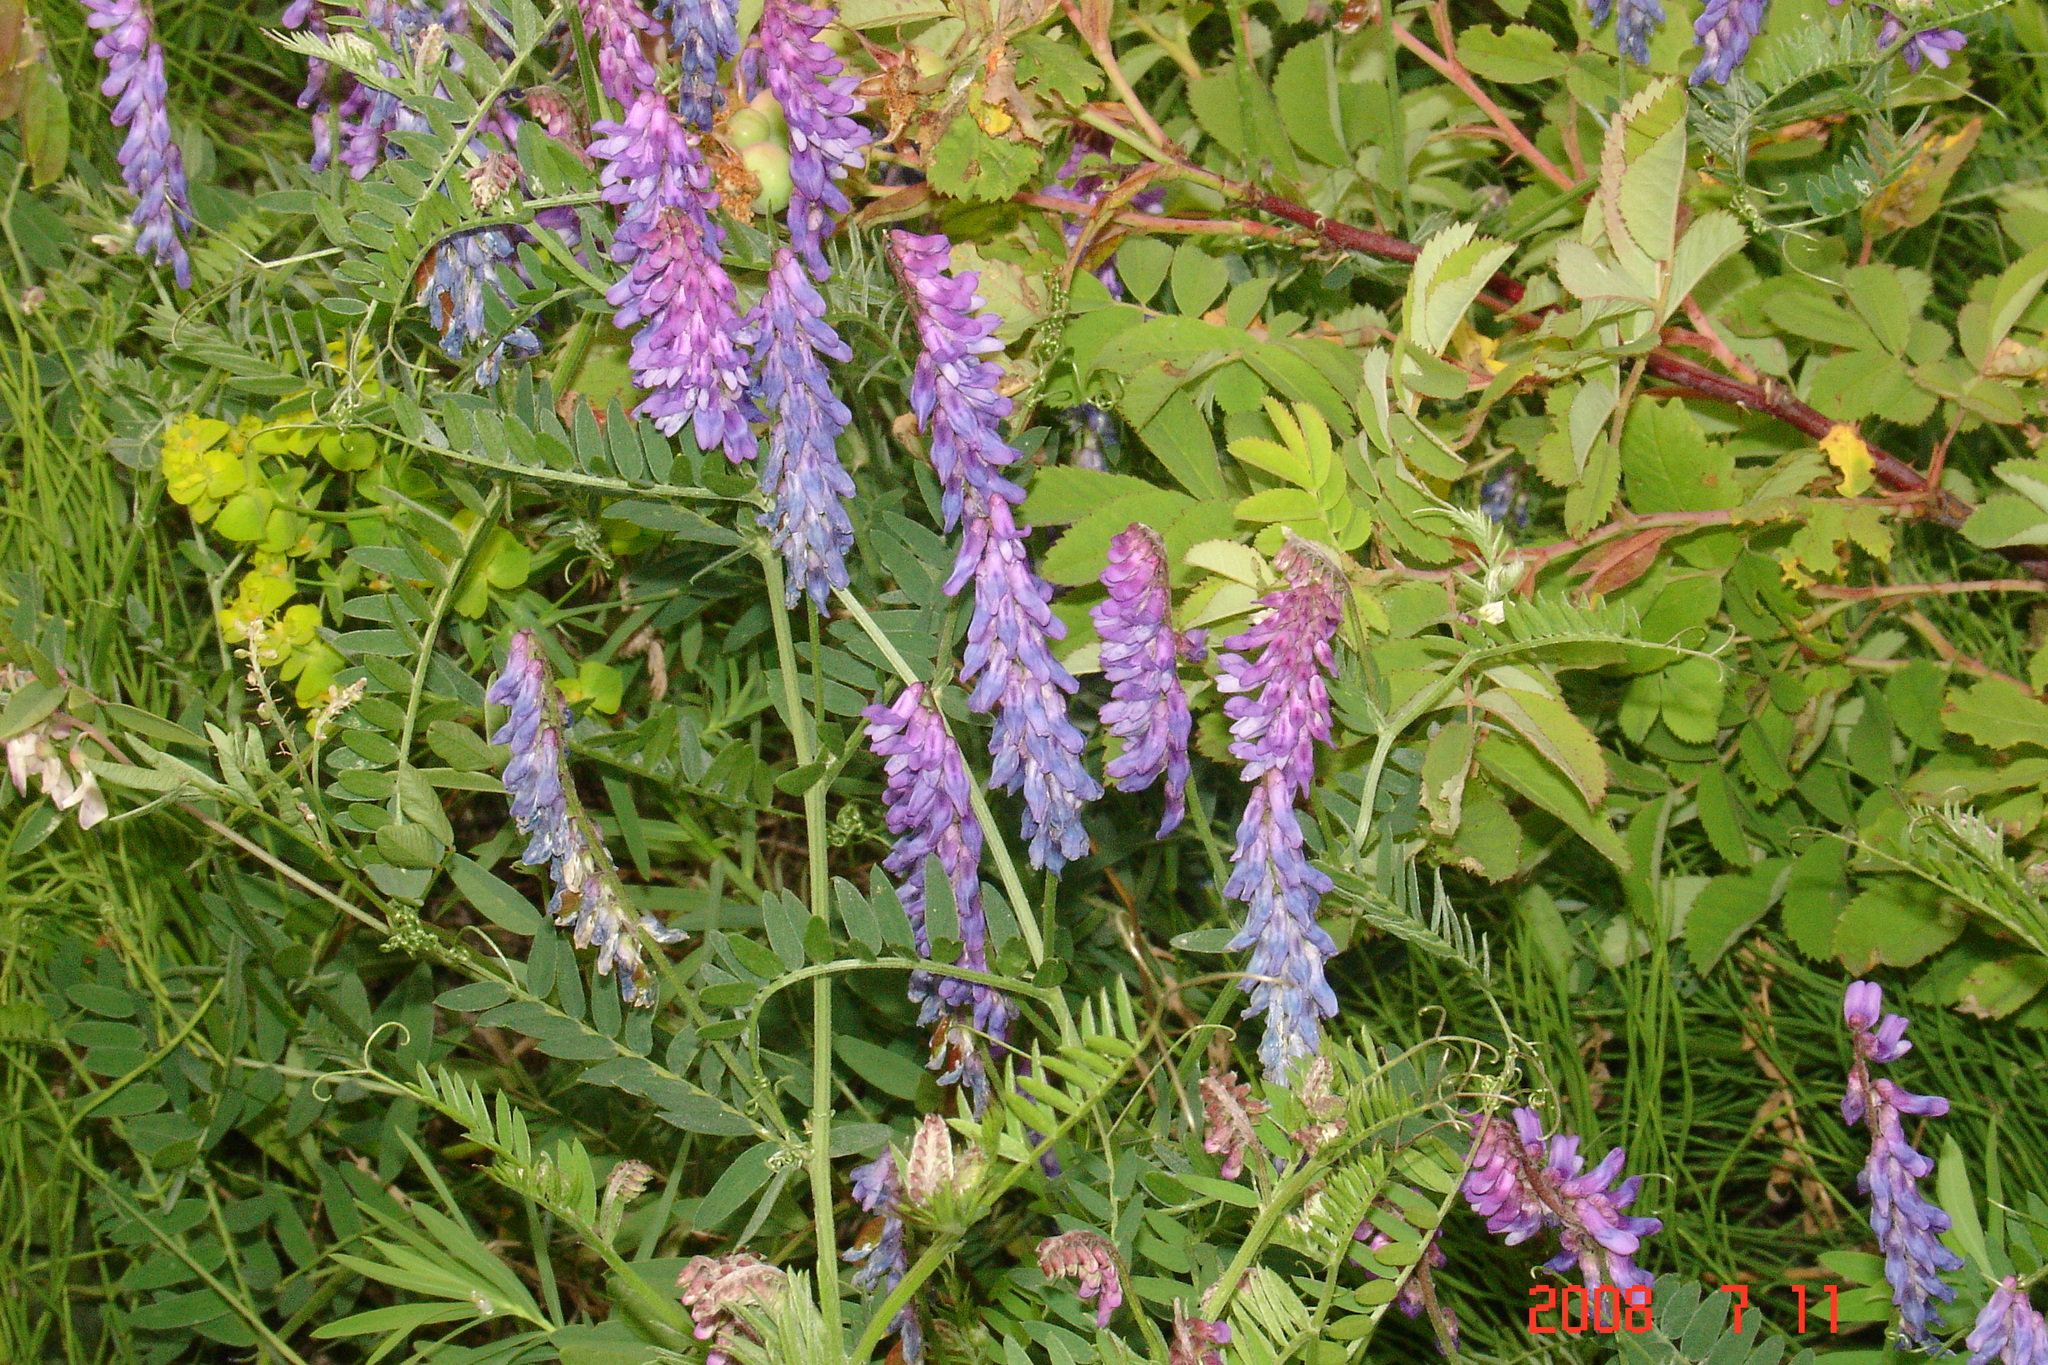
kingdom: Plantae
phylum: Tracheophyta
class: Magnoliopsida
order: Fabales
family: Fabaceae
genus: Vicia
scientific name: Vicia cracca
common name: Bird vetch
